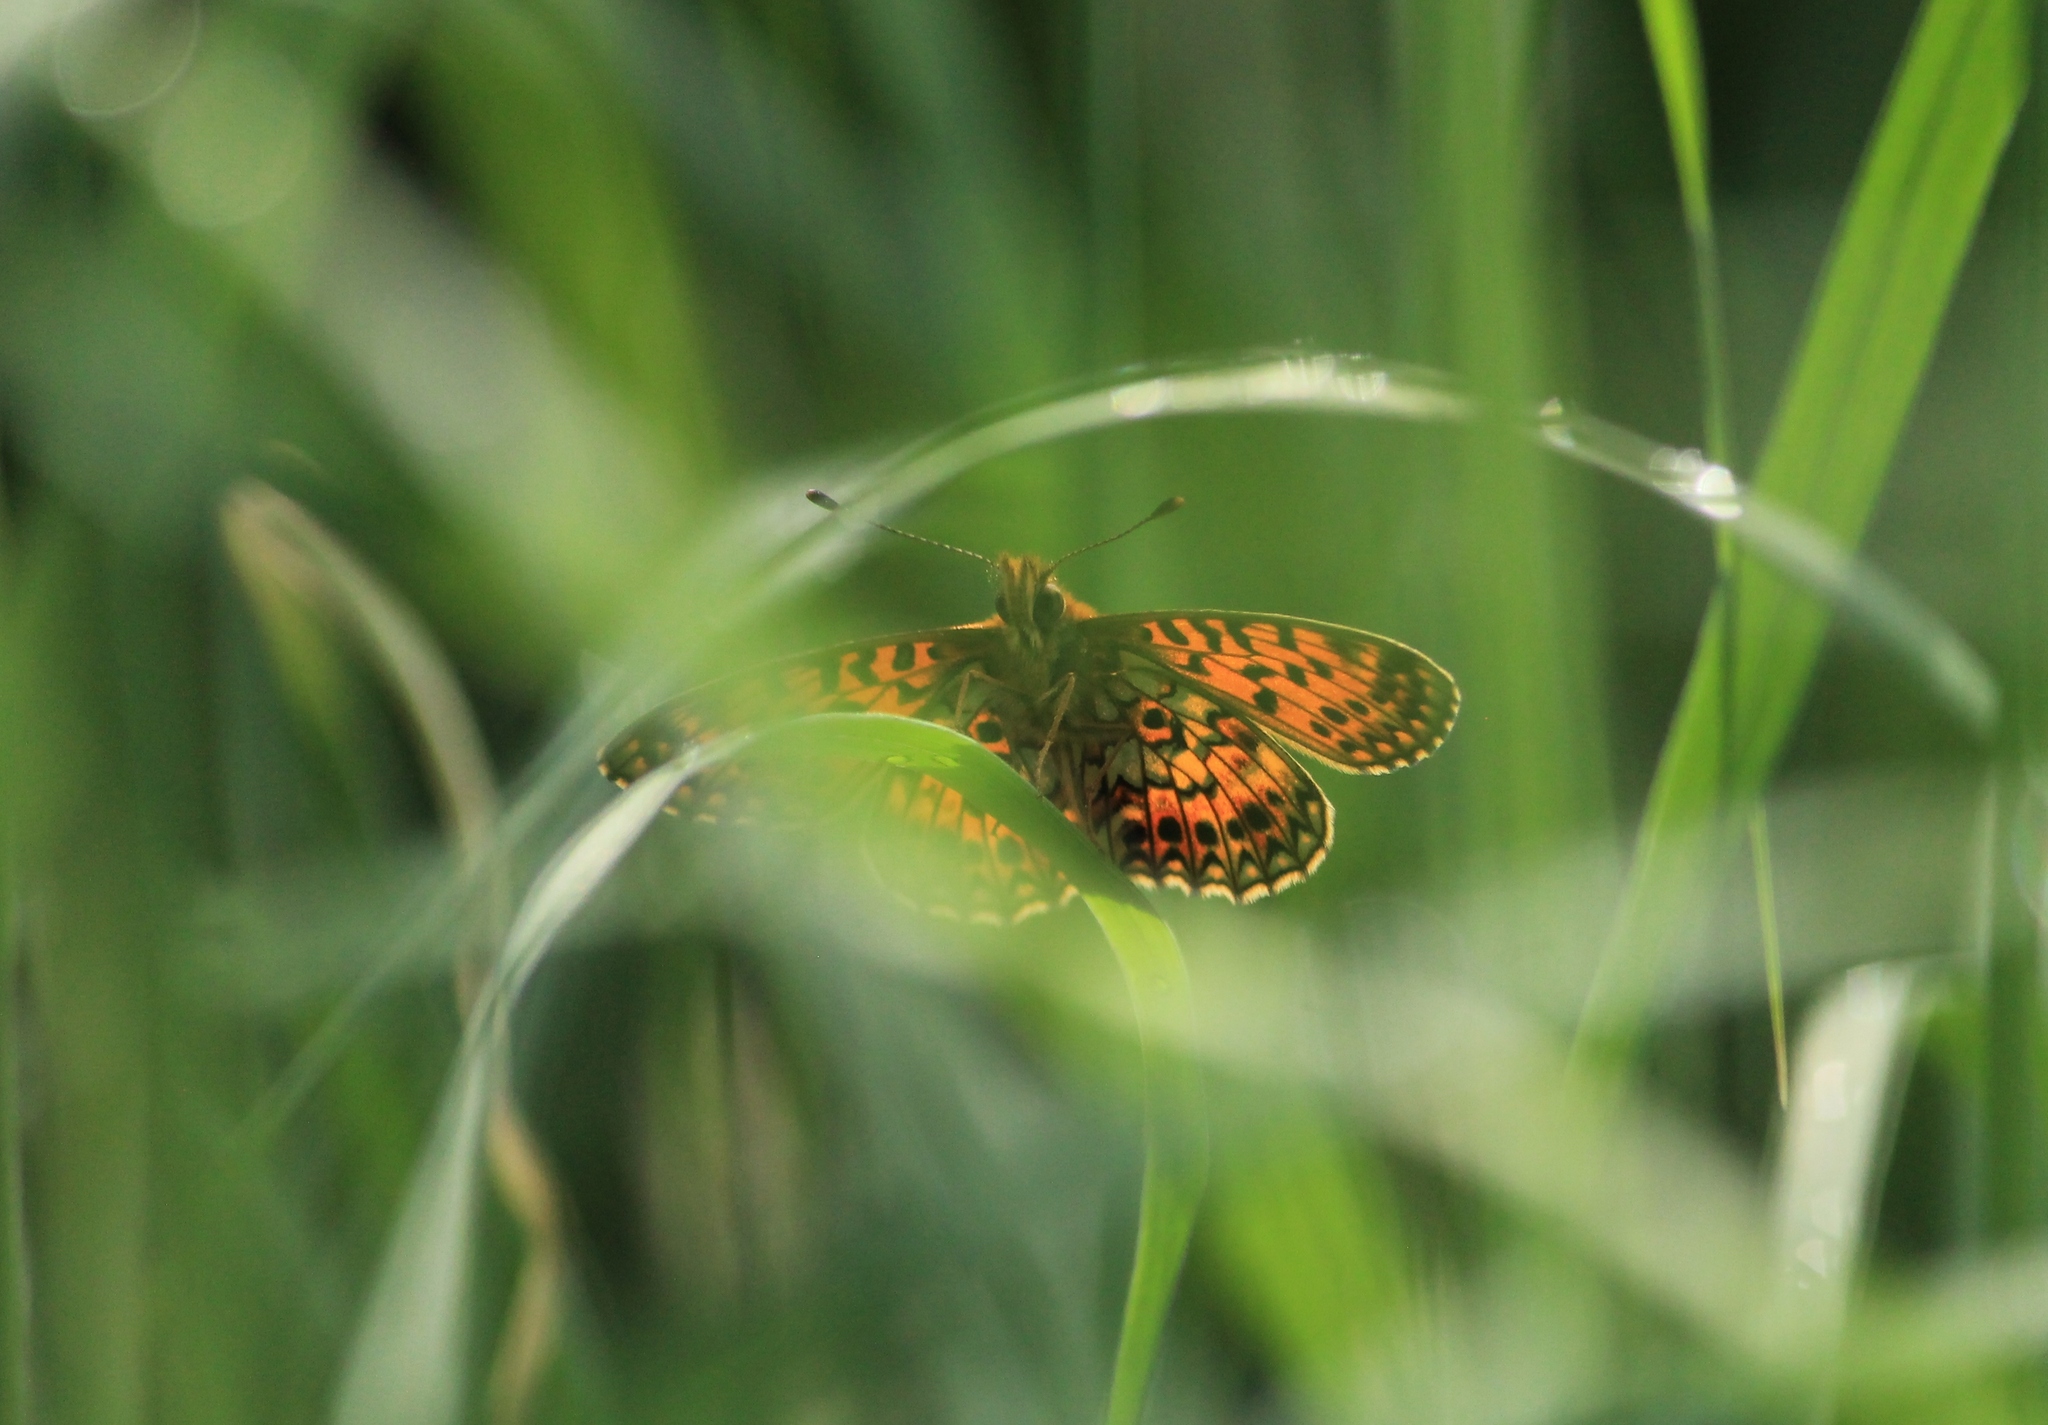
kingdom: Animalia
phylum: Arthropoda
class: Insecta
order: Lepidoptera
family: Nymphalidae
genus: Boloria
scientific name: Boloria selene
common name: Small pearl-bordered fritillary
